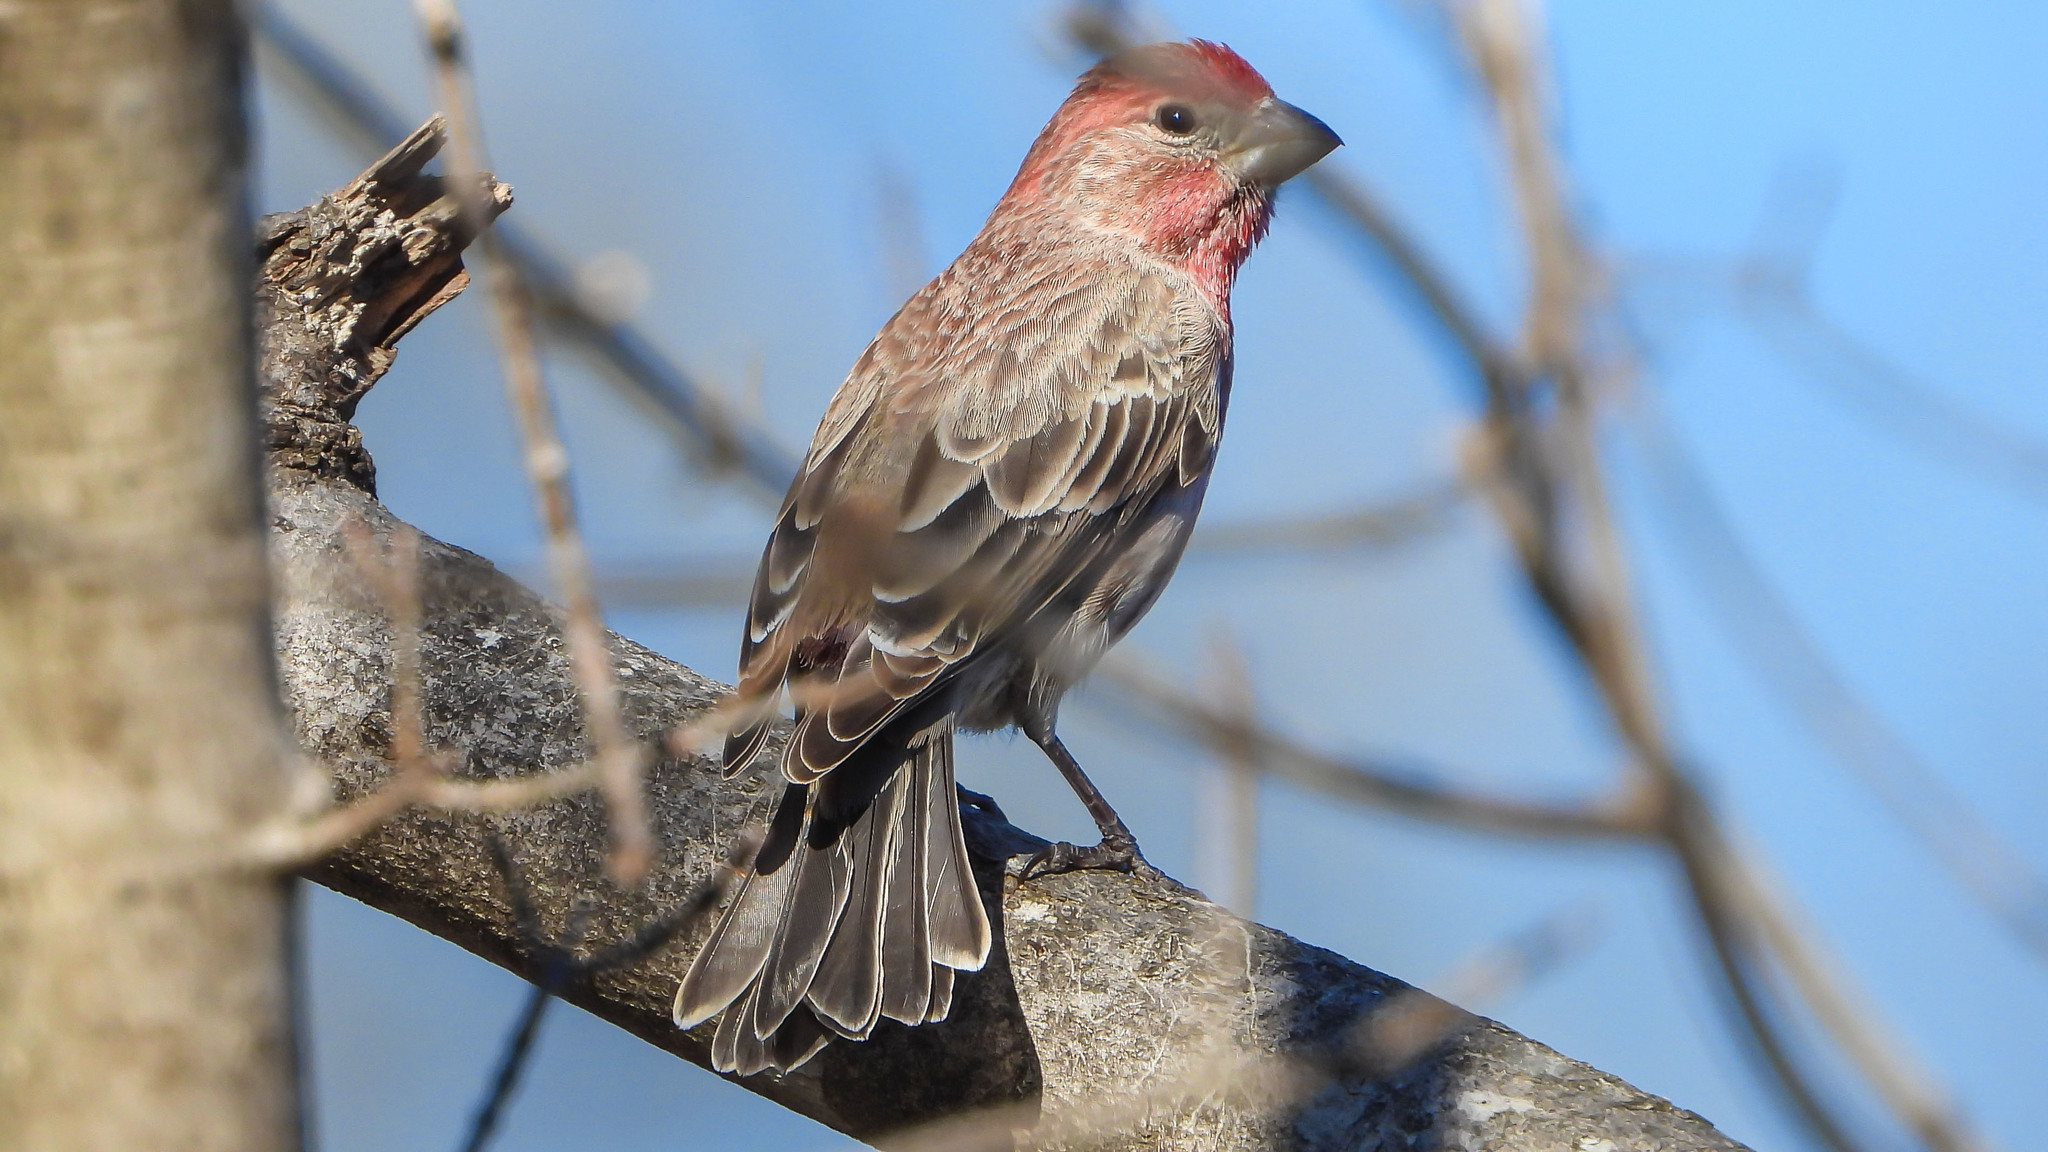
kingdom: Animalia
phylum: Chordata
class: Aves
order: Passeriformes
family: Fringillidae
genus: Haemorhous
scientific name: Haemorhous mexicanus
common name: House finch
